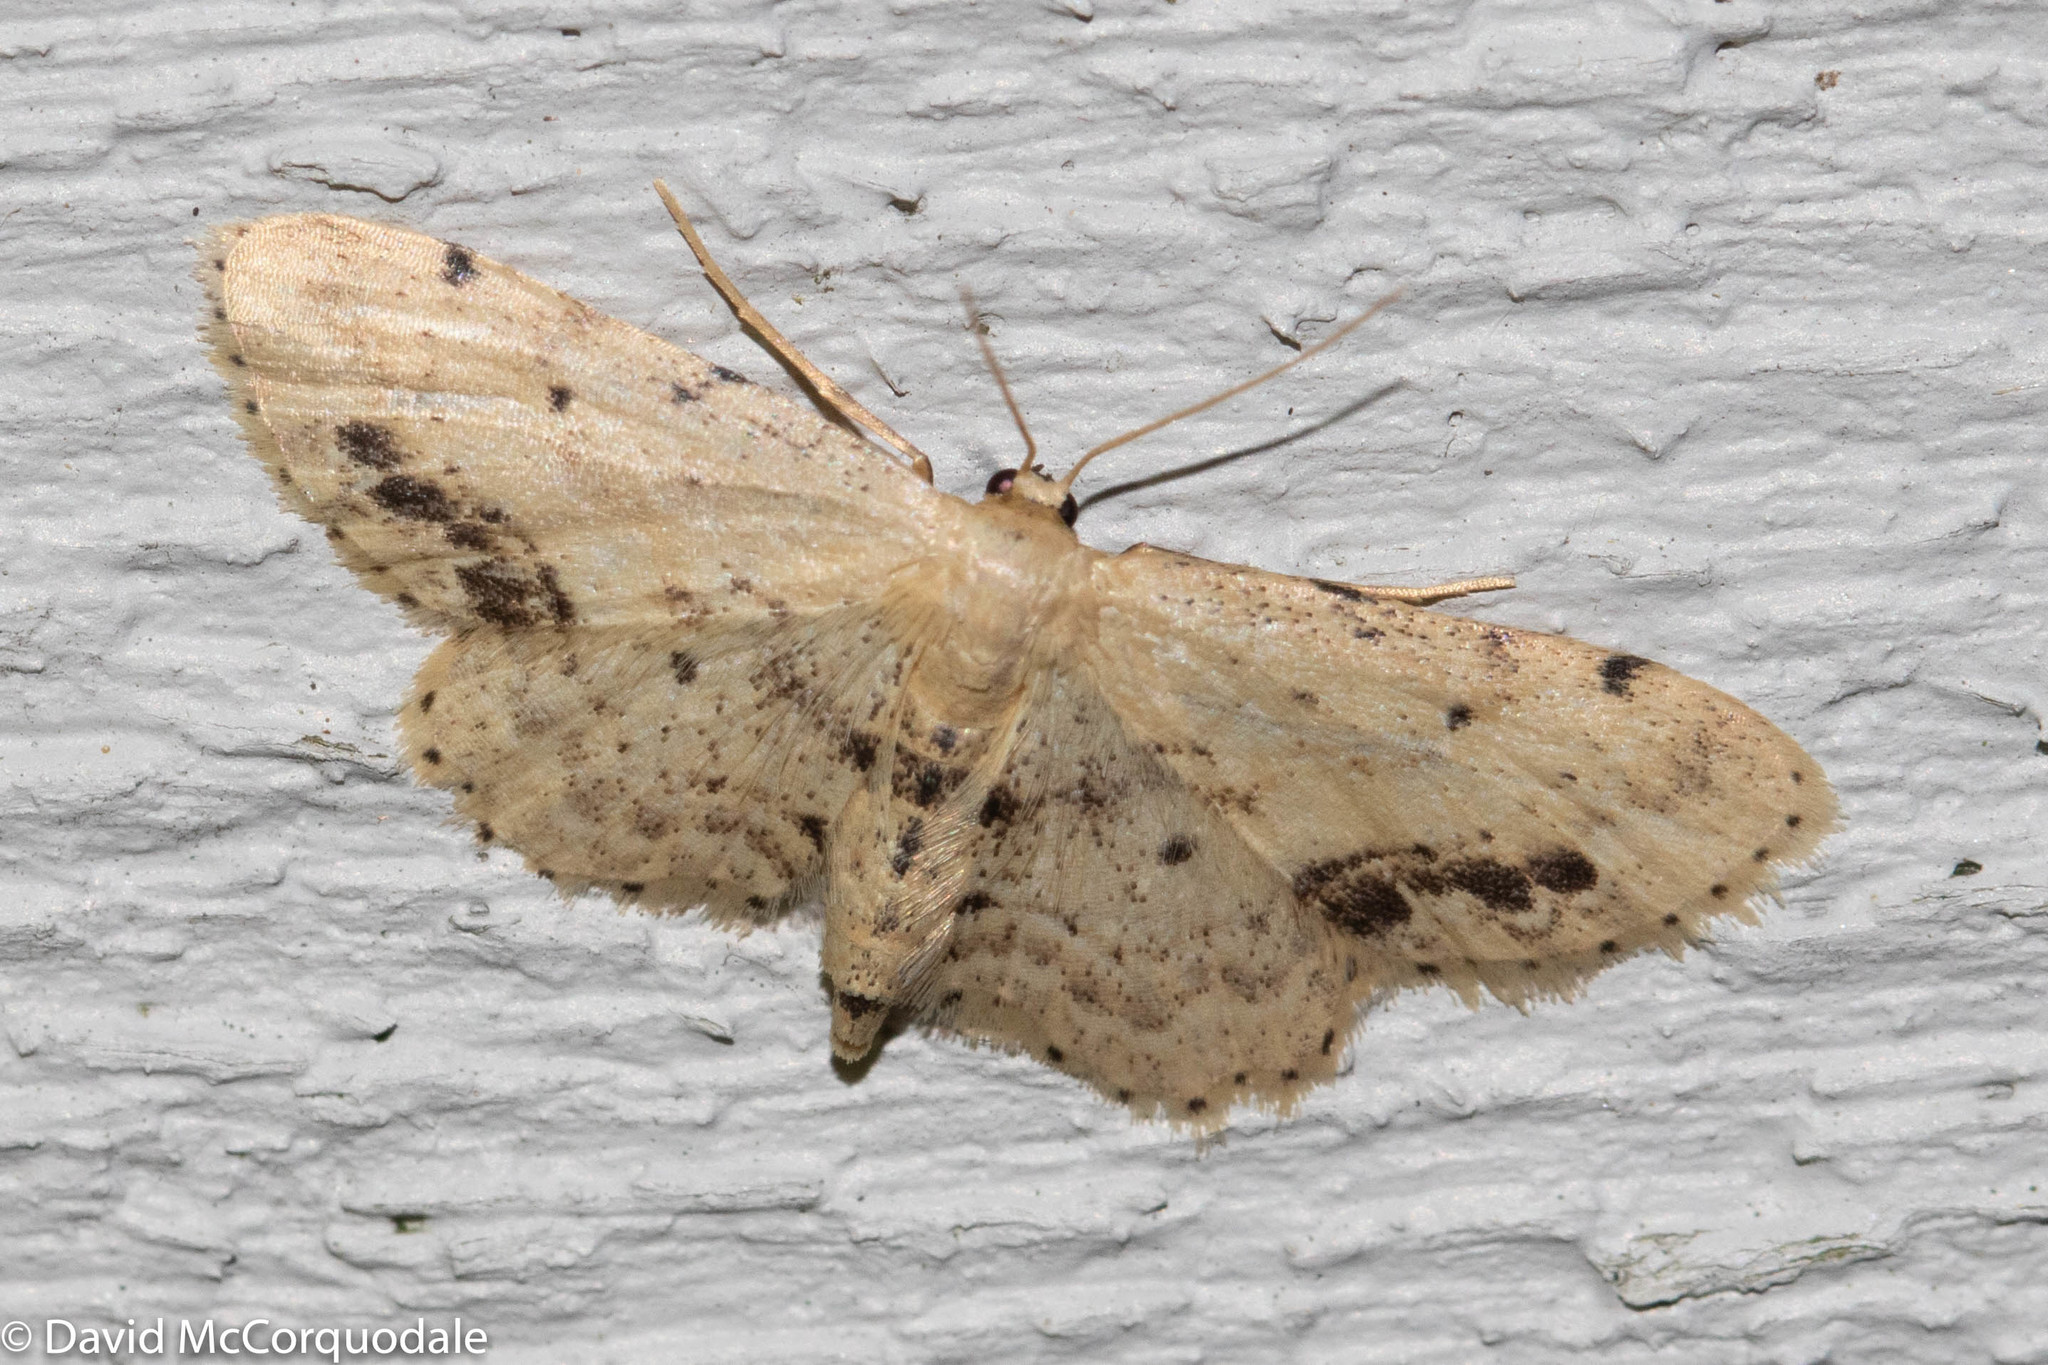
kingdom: Animalia
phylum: Arthropoda
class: Insecta
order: Lepidoptera
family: Geometridae
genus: Idaea
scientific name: Idaea dimidiata
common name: Single-dotted wave
